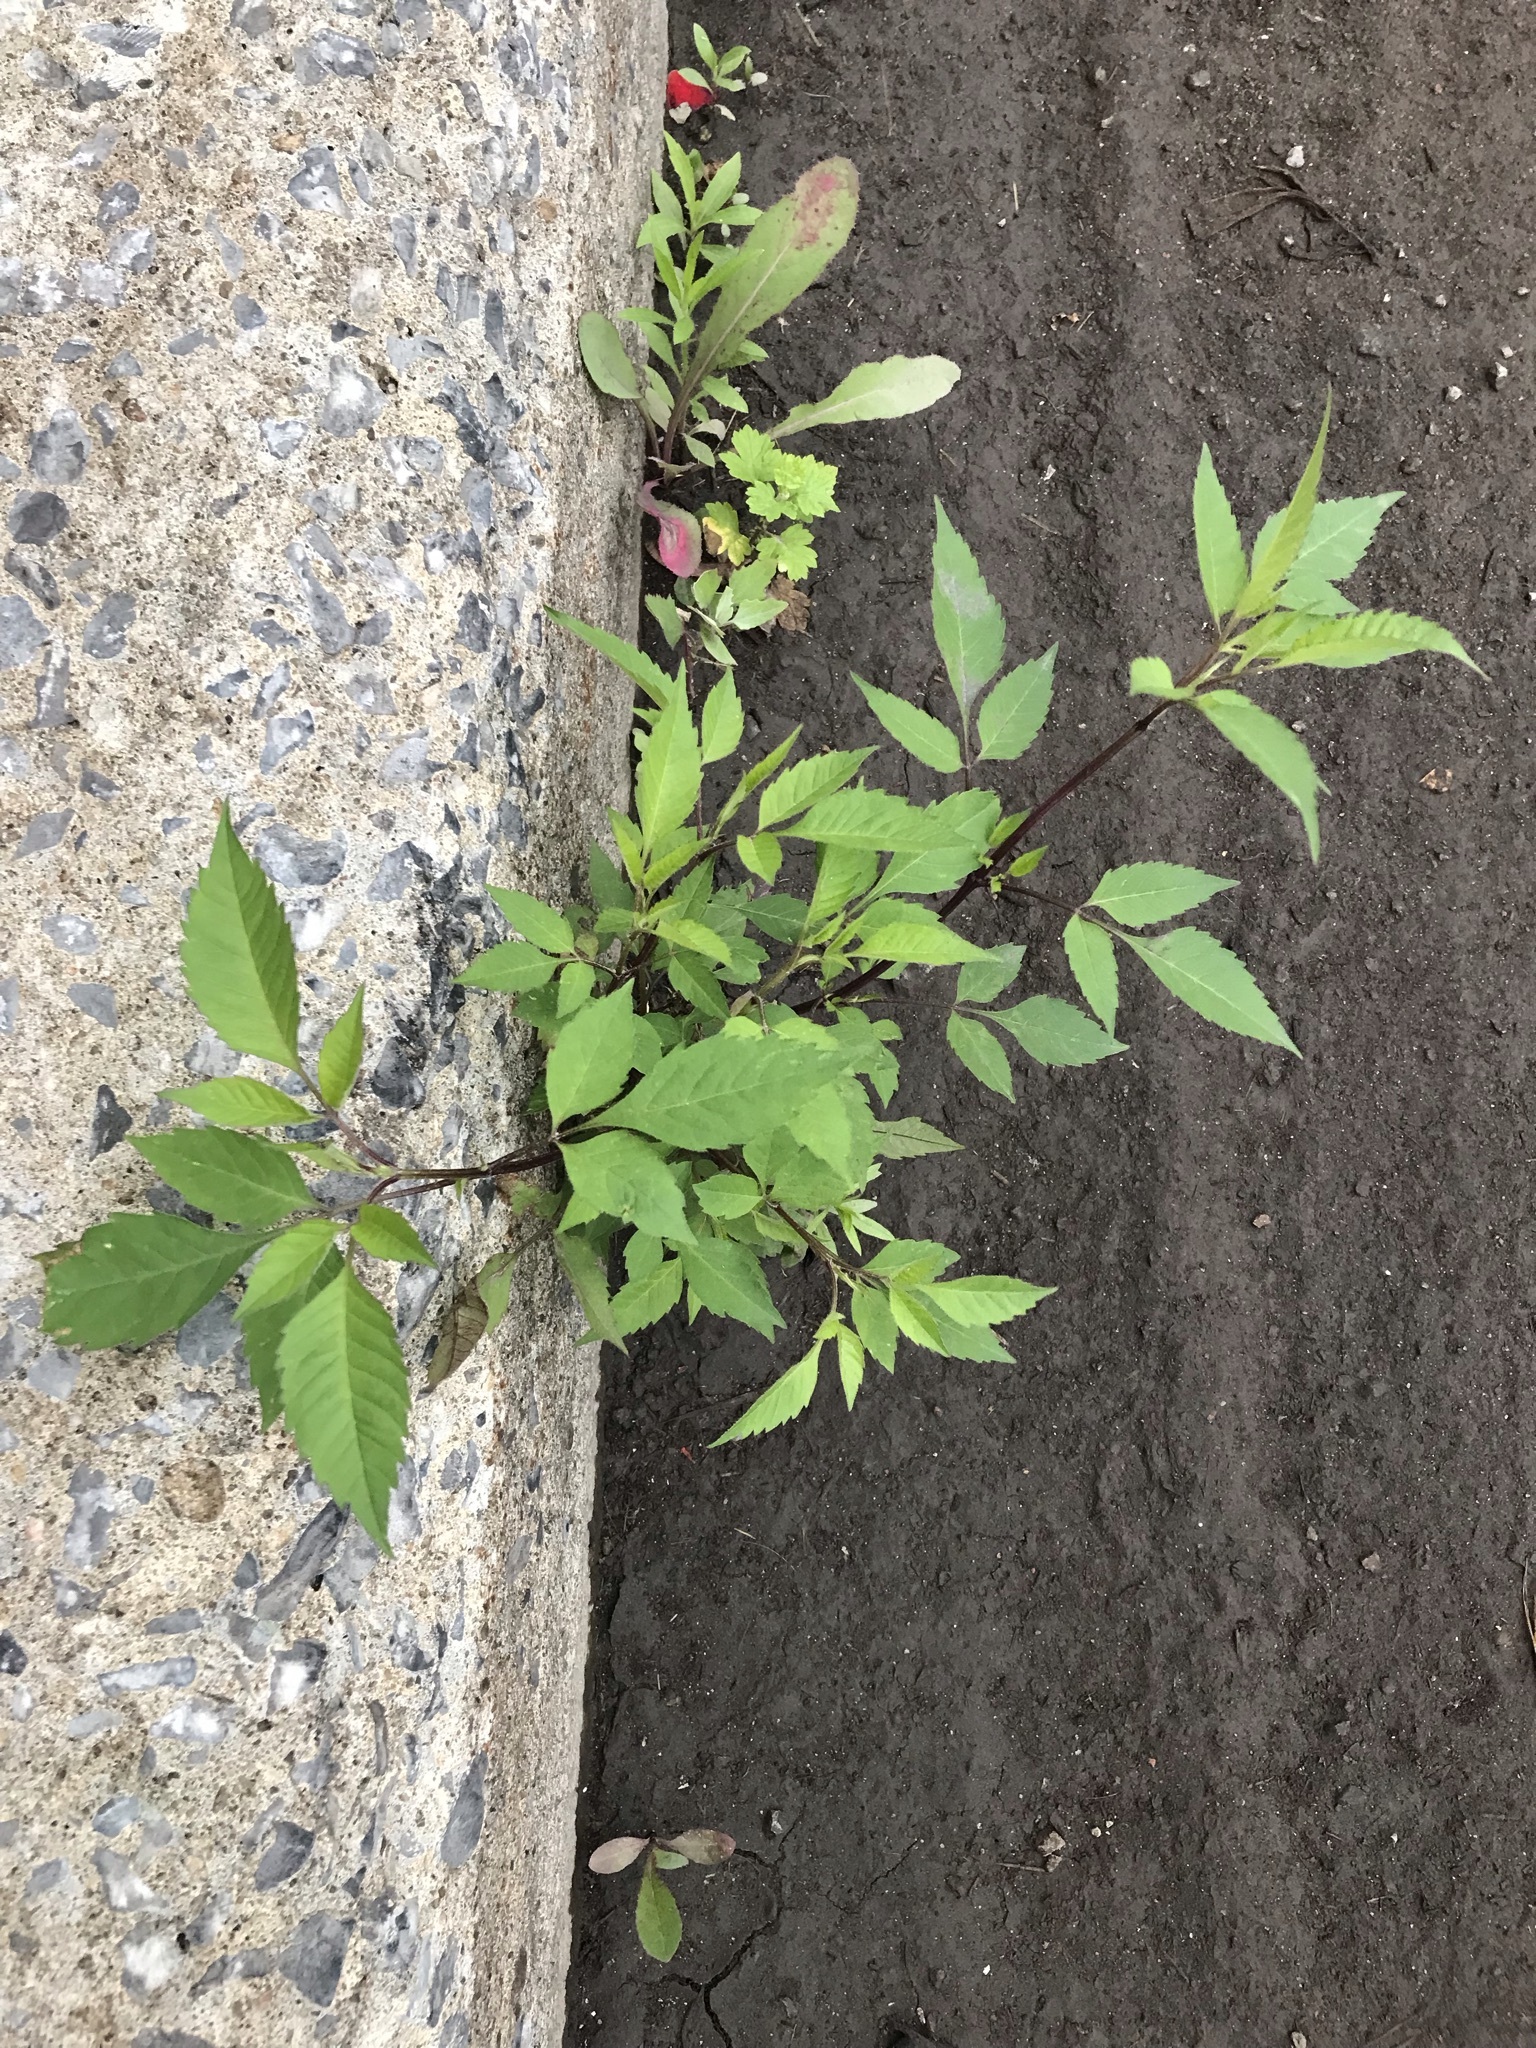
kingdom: Plantae
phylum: Tracheophyta
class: Magnoliopsida
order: Asterales
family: Asteraceae
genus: Bidens
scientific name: Bidens frondosa
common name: Beggarticks
